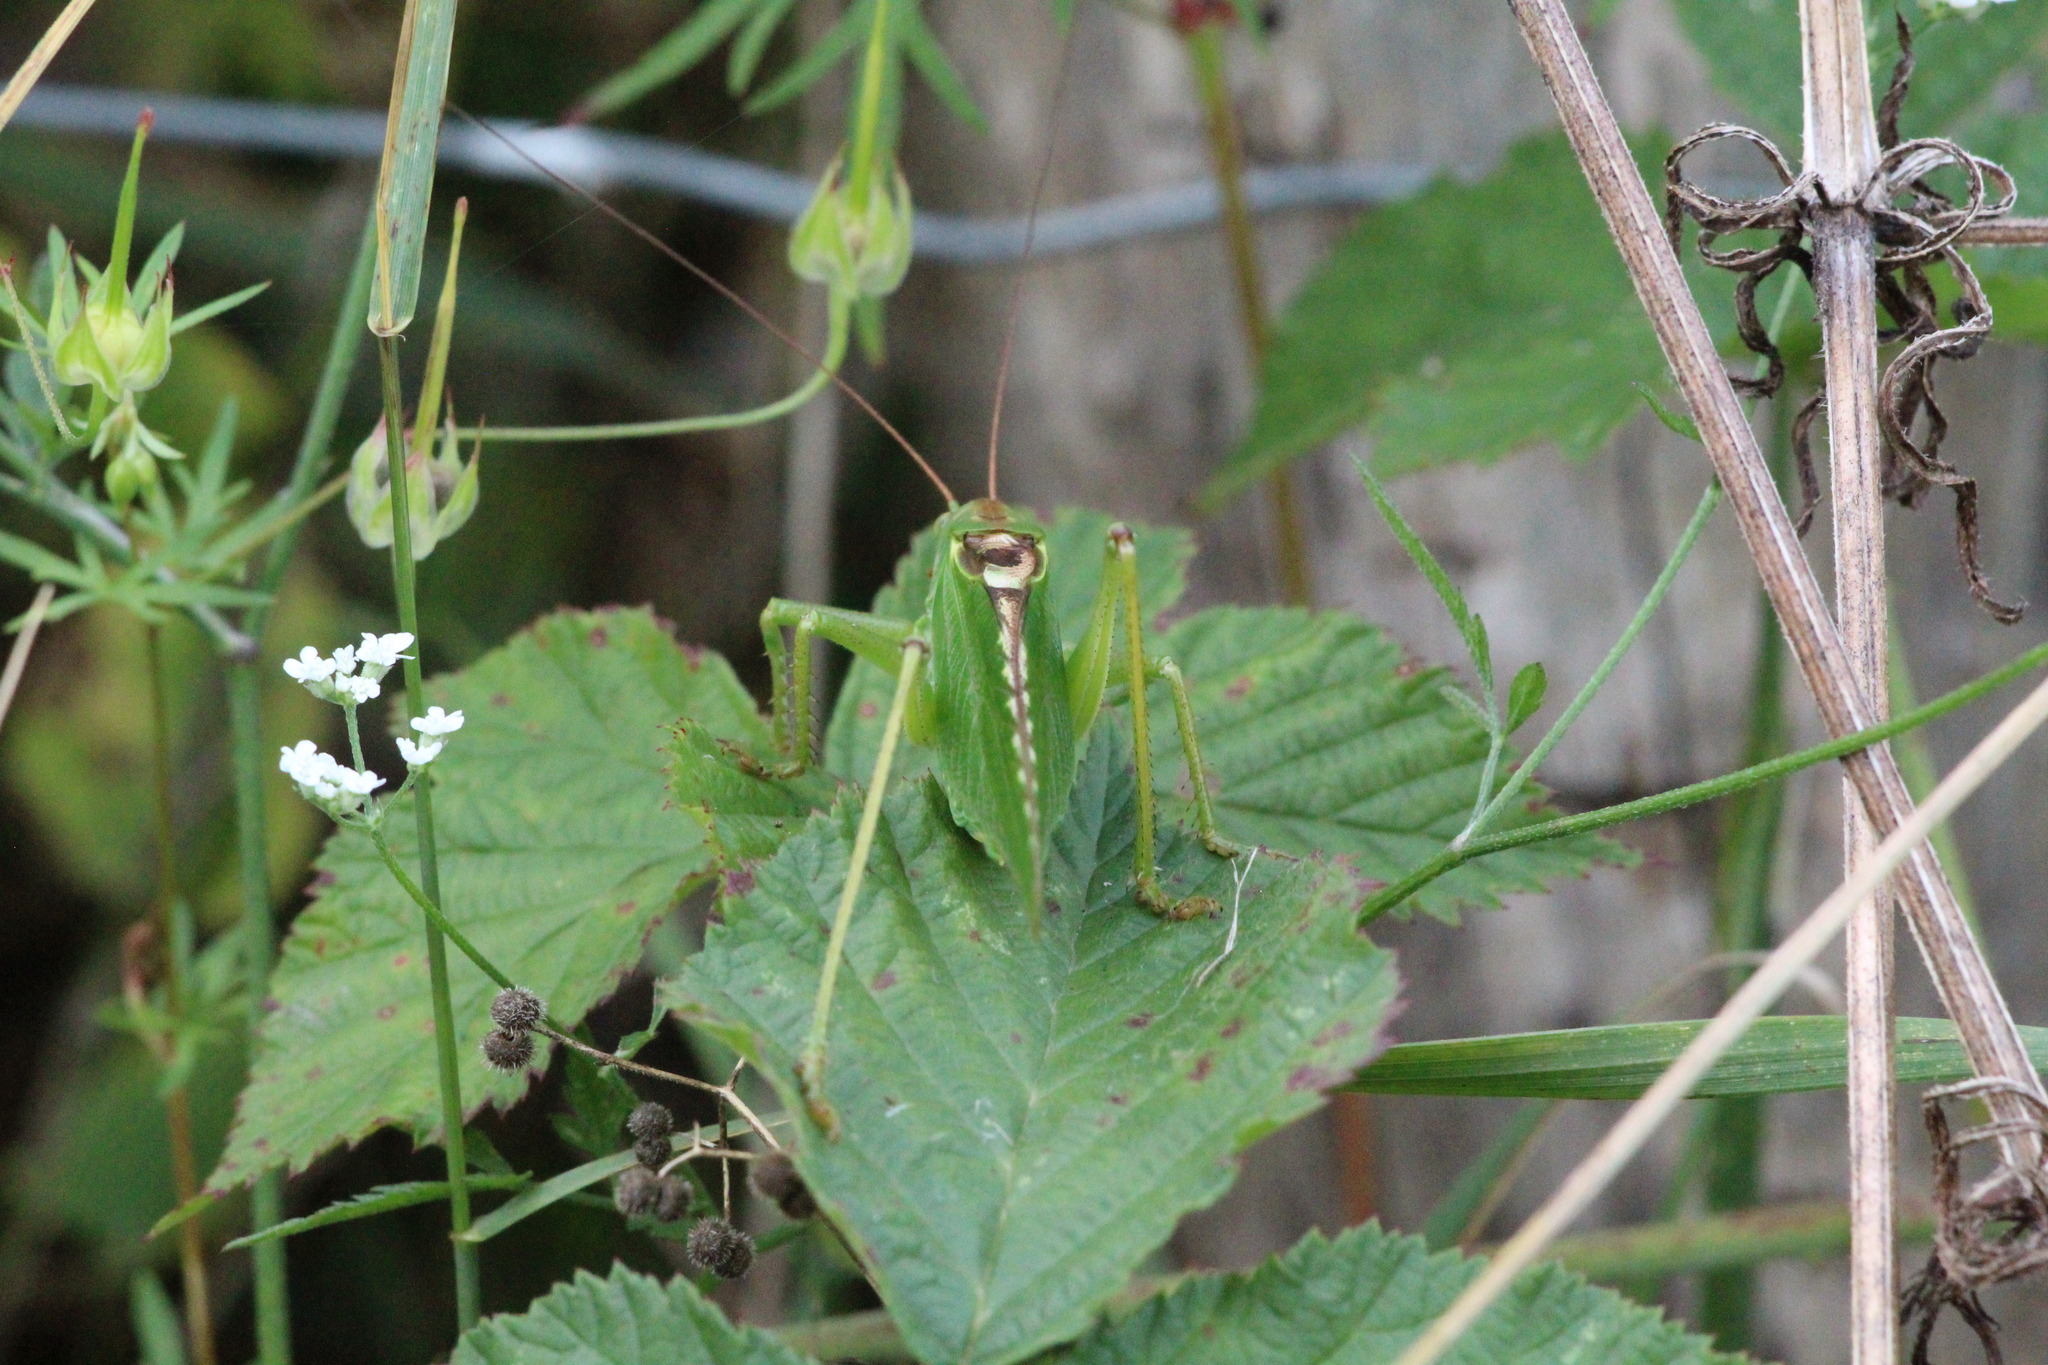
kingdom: Animalia
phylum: Arthropoda
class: Insecta
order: Orthoptera
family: Tettigoniidae
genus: Tettigonia
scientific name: Tettigonia viridissima
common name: Great green bush-cricket
